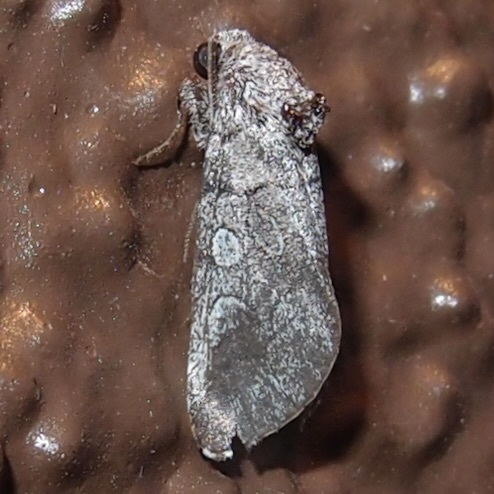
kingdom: Animalia
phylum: Arthropoda
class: Insecta
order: Lepidoptera
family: Noctuidae
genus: Oxycnemis
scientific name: Oxycnemis advena
